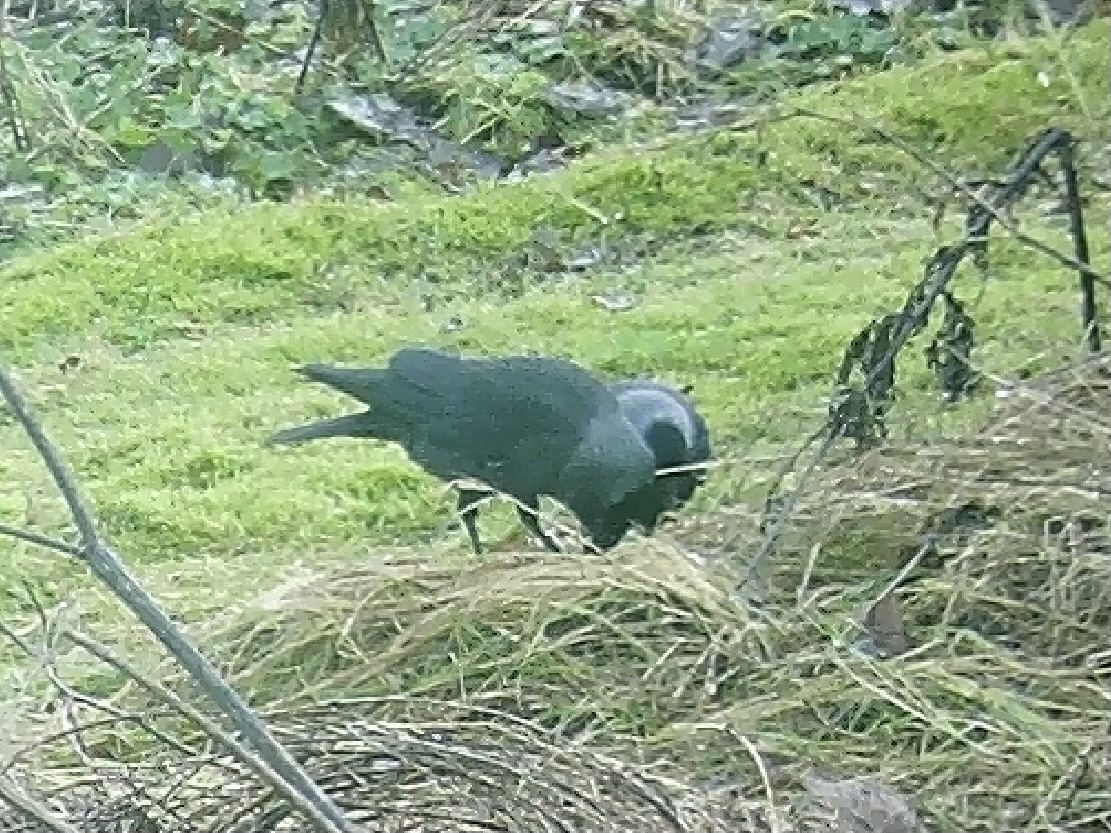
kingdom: Animalia
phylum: Chordata
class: Aves
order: Passeriformes
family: Corvidae
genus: Coloeus
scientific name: Coloeus monedula
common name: Western jackdaw
